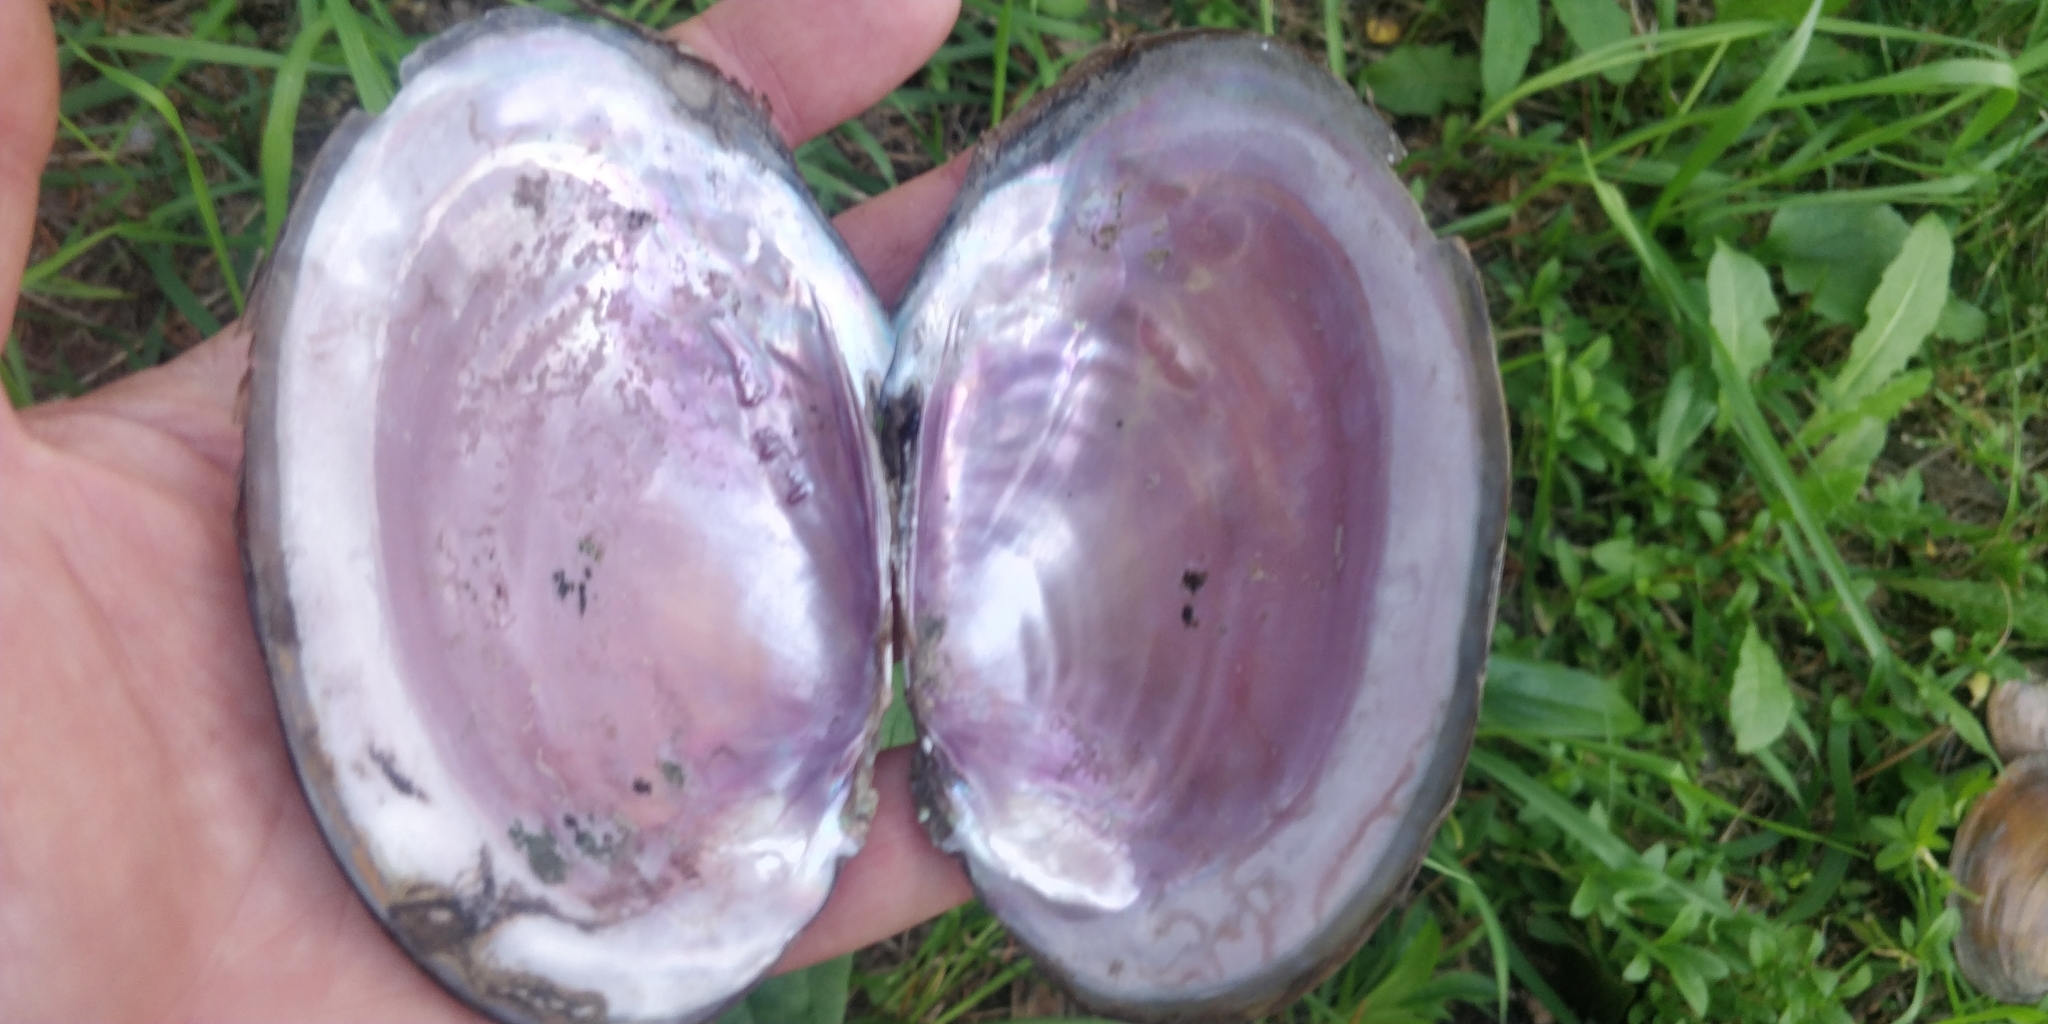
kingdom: Animalia
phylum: Mollusca
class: Bivalvia
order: Unionida
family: Unionidae
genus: Potamilus
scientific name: Potamilus ohiensis
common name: Pink papershell
